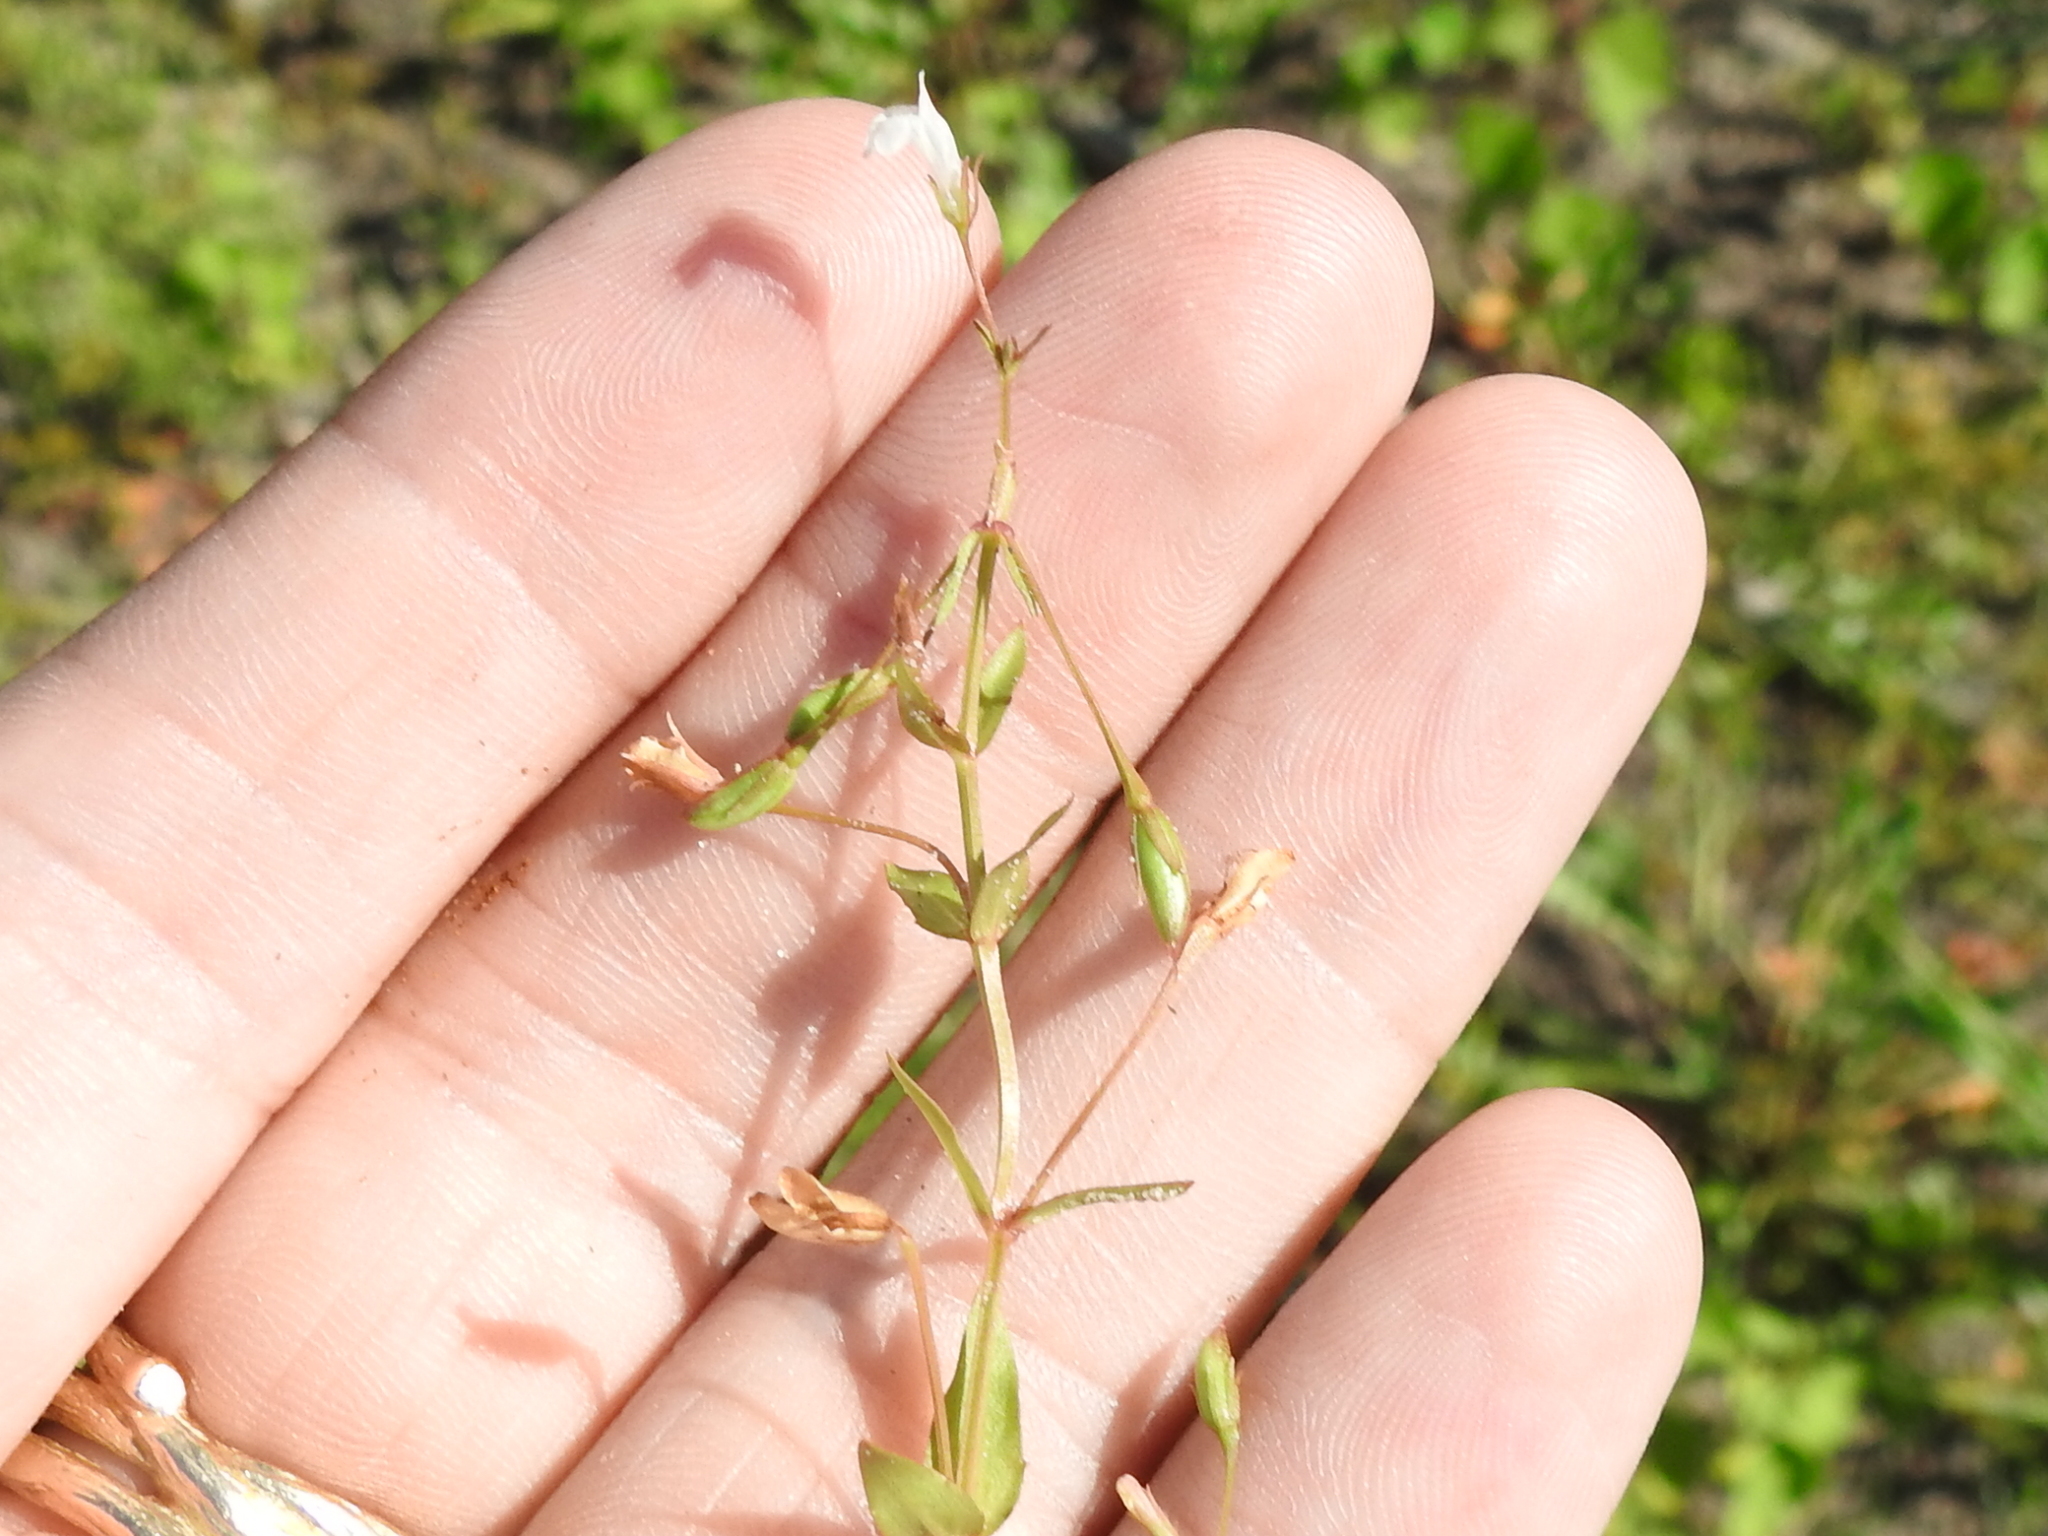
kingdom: Plantae
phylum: Tracheophyta
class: Magnoliopsida
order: Lamiales
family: Linderniaceae
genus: Lindernia
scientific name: Lindernia dubia
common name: Annual false pimpernel
